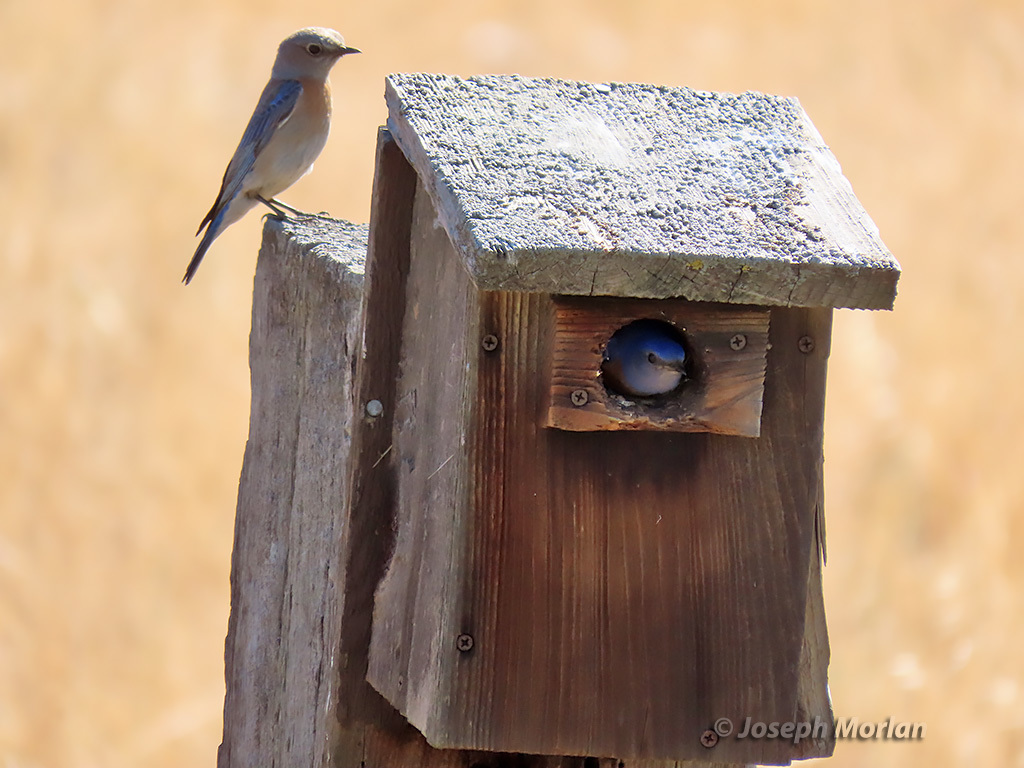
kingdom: Animalia
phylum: Chordata
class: Aves
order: Passeriformes
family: Turdidae
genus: Sialia
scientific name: Sialia mexicana
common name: Western bluebird
